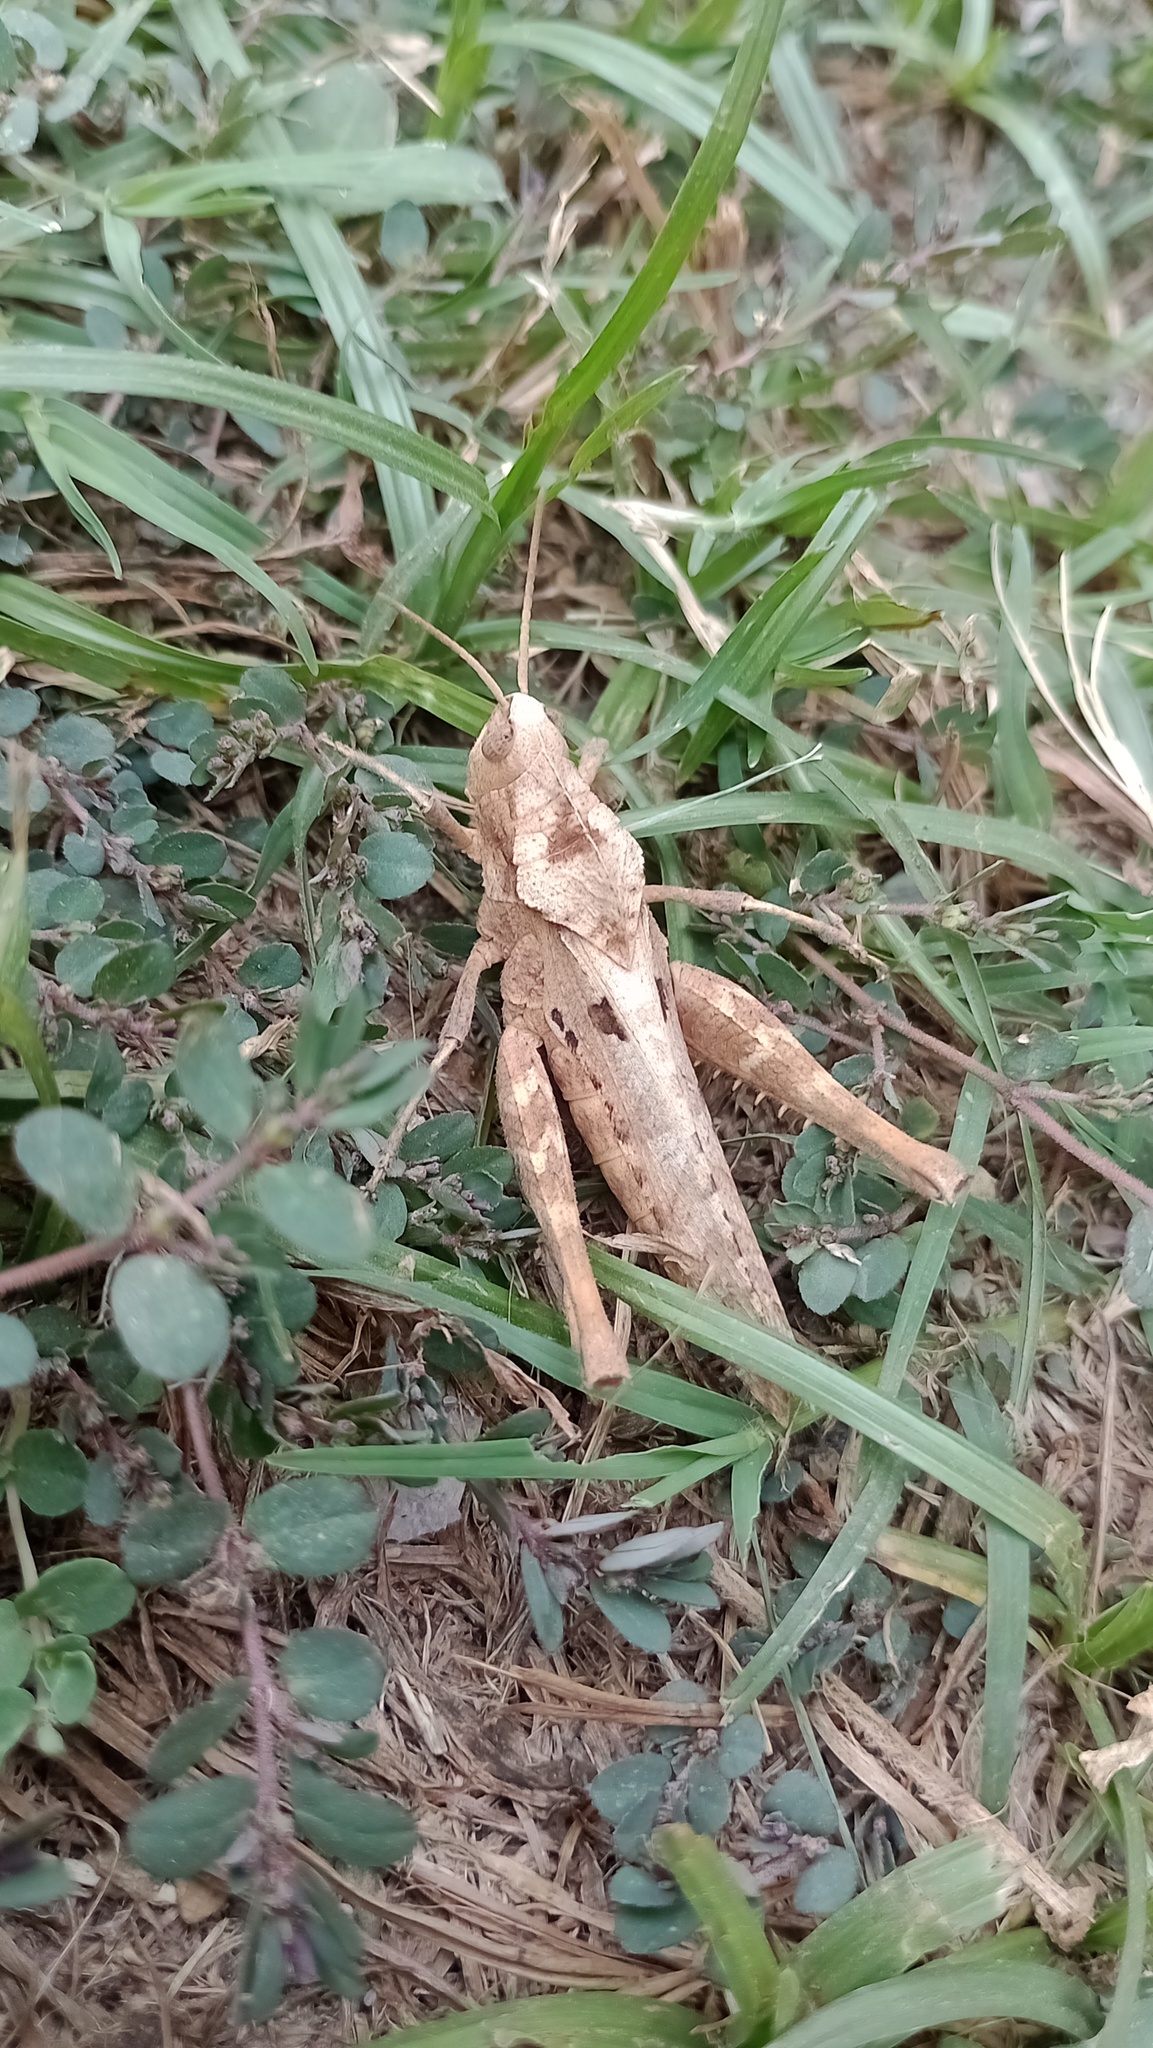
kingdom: Animalia
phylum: Arthropoda
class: Insecta
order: Orthoptera
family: Romaleidae
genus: Xyleus
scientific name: Xyleus modestus
